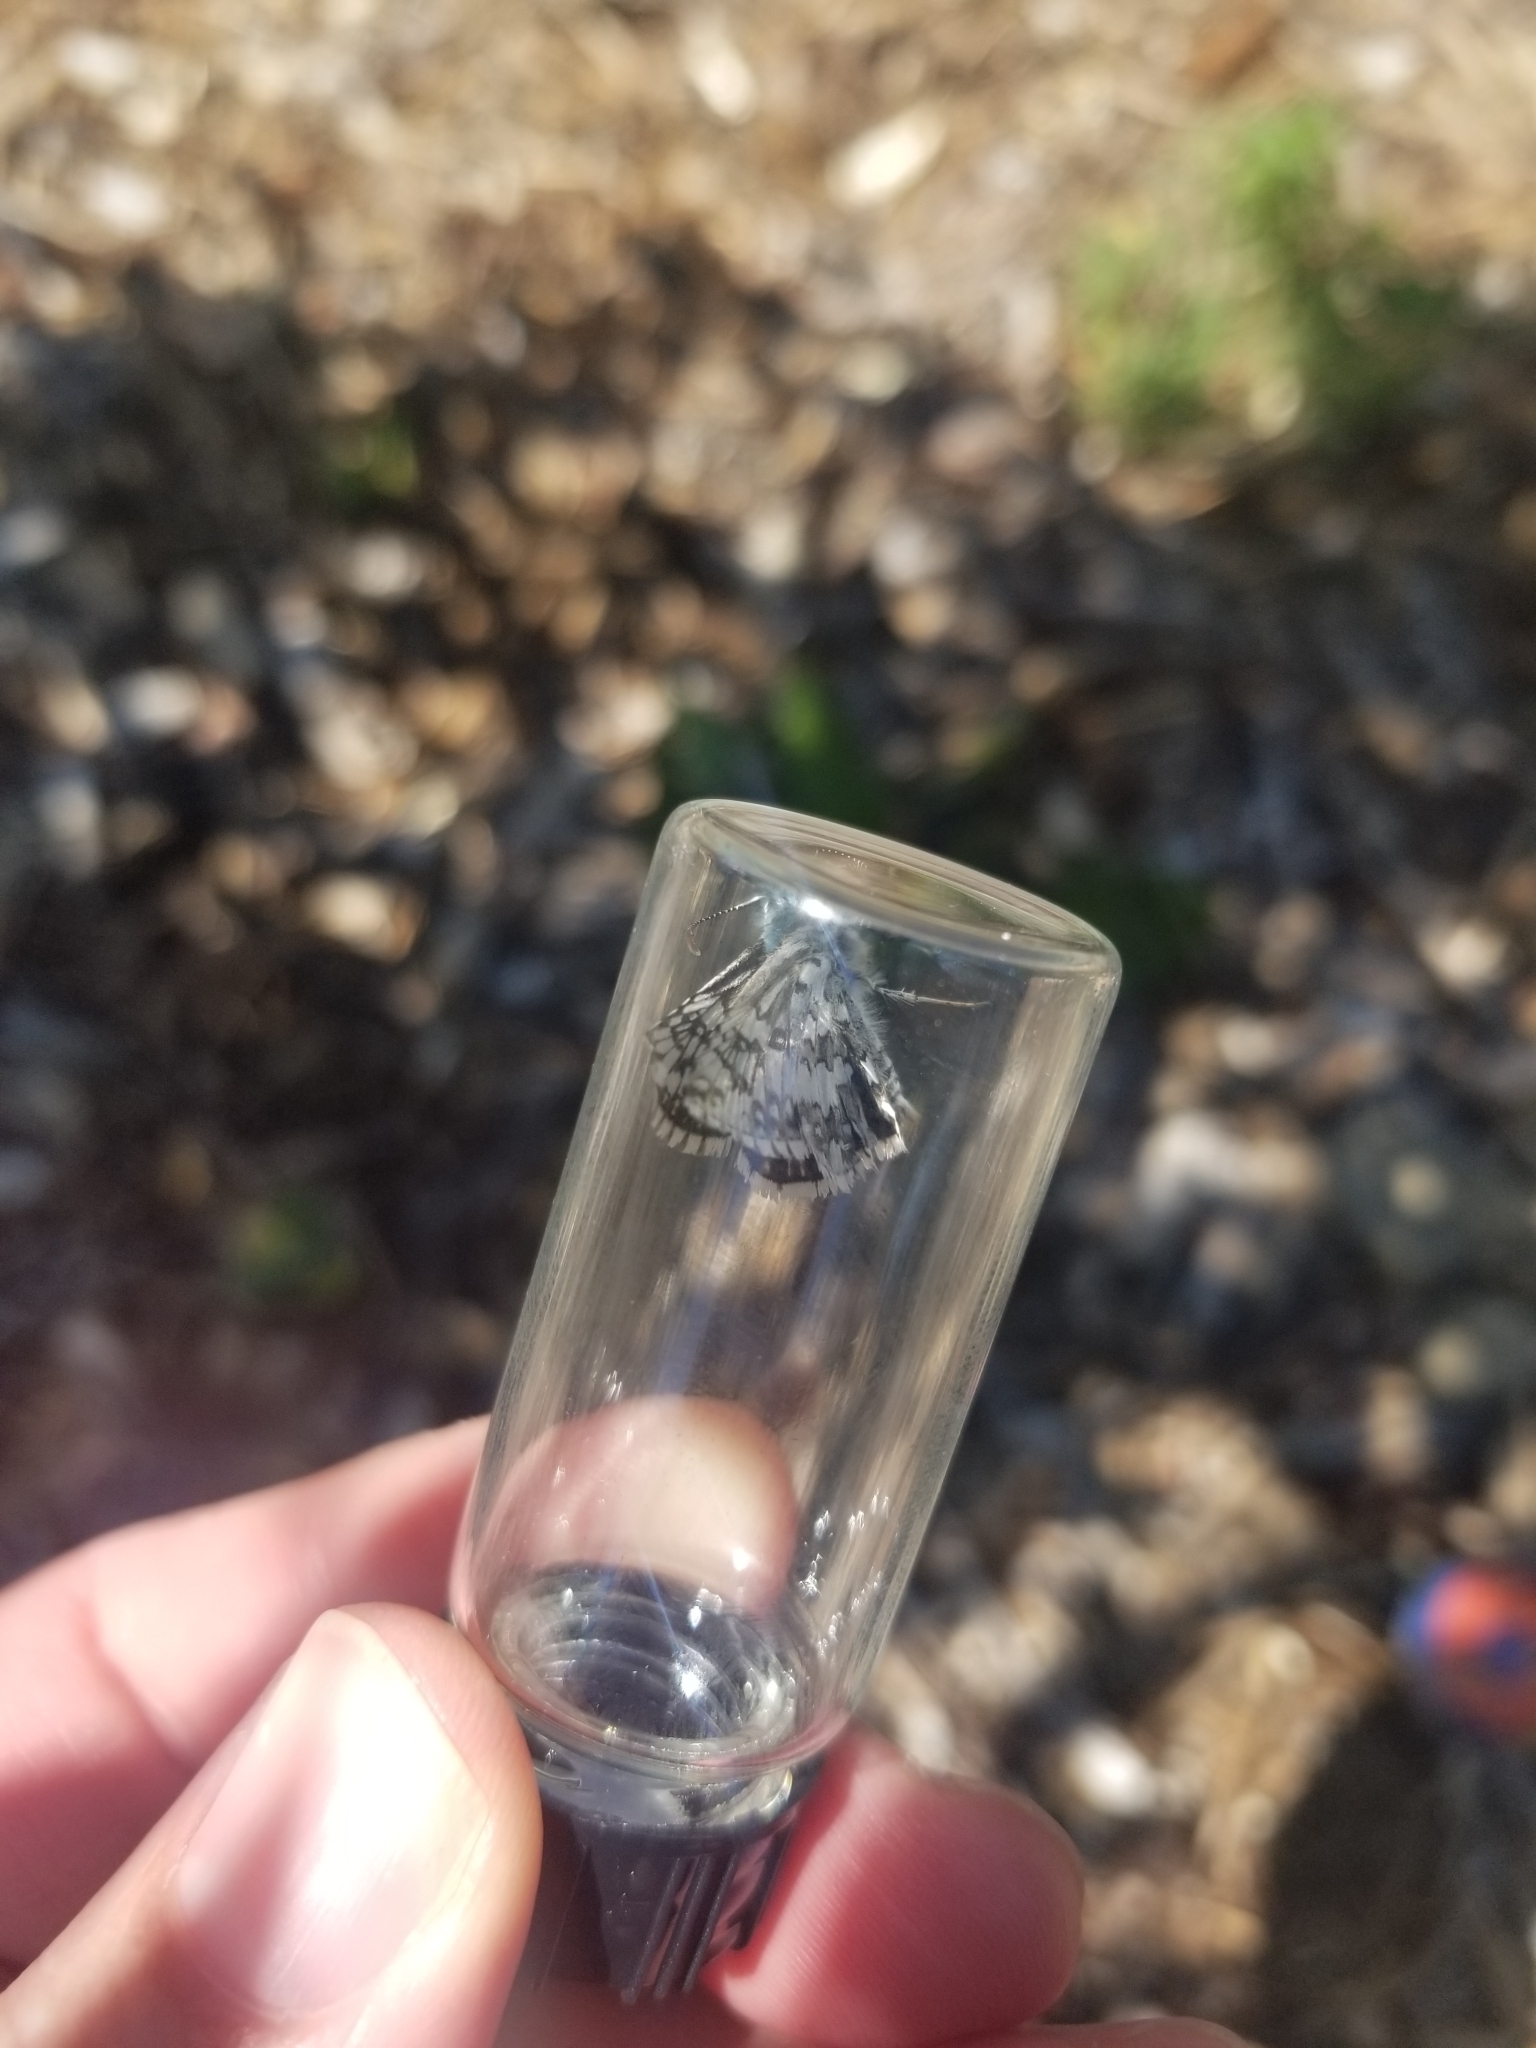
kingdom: Animalia
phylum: Arthropoda
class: Insecta
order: Lepidoptera
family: Hesperiidae
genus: Burnsius
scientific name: Burnsius communis
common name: Common checkered-skipper
